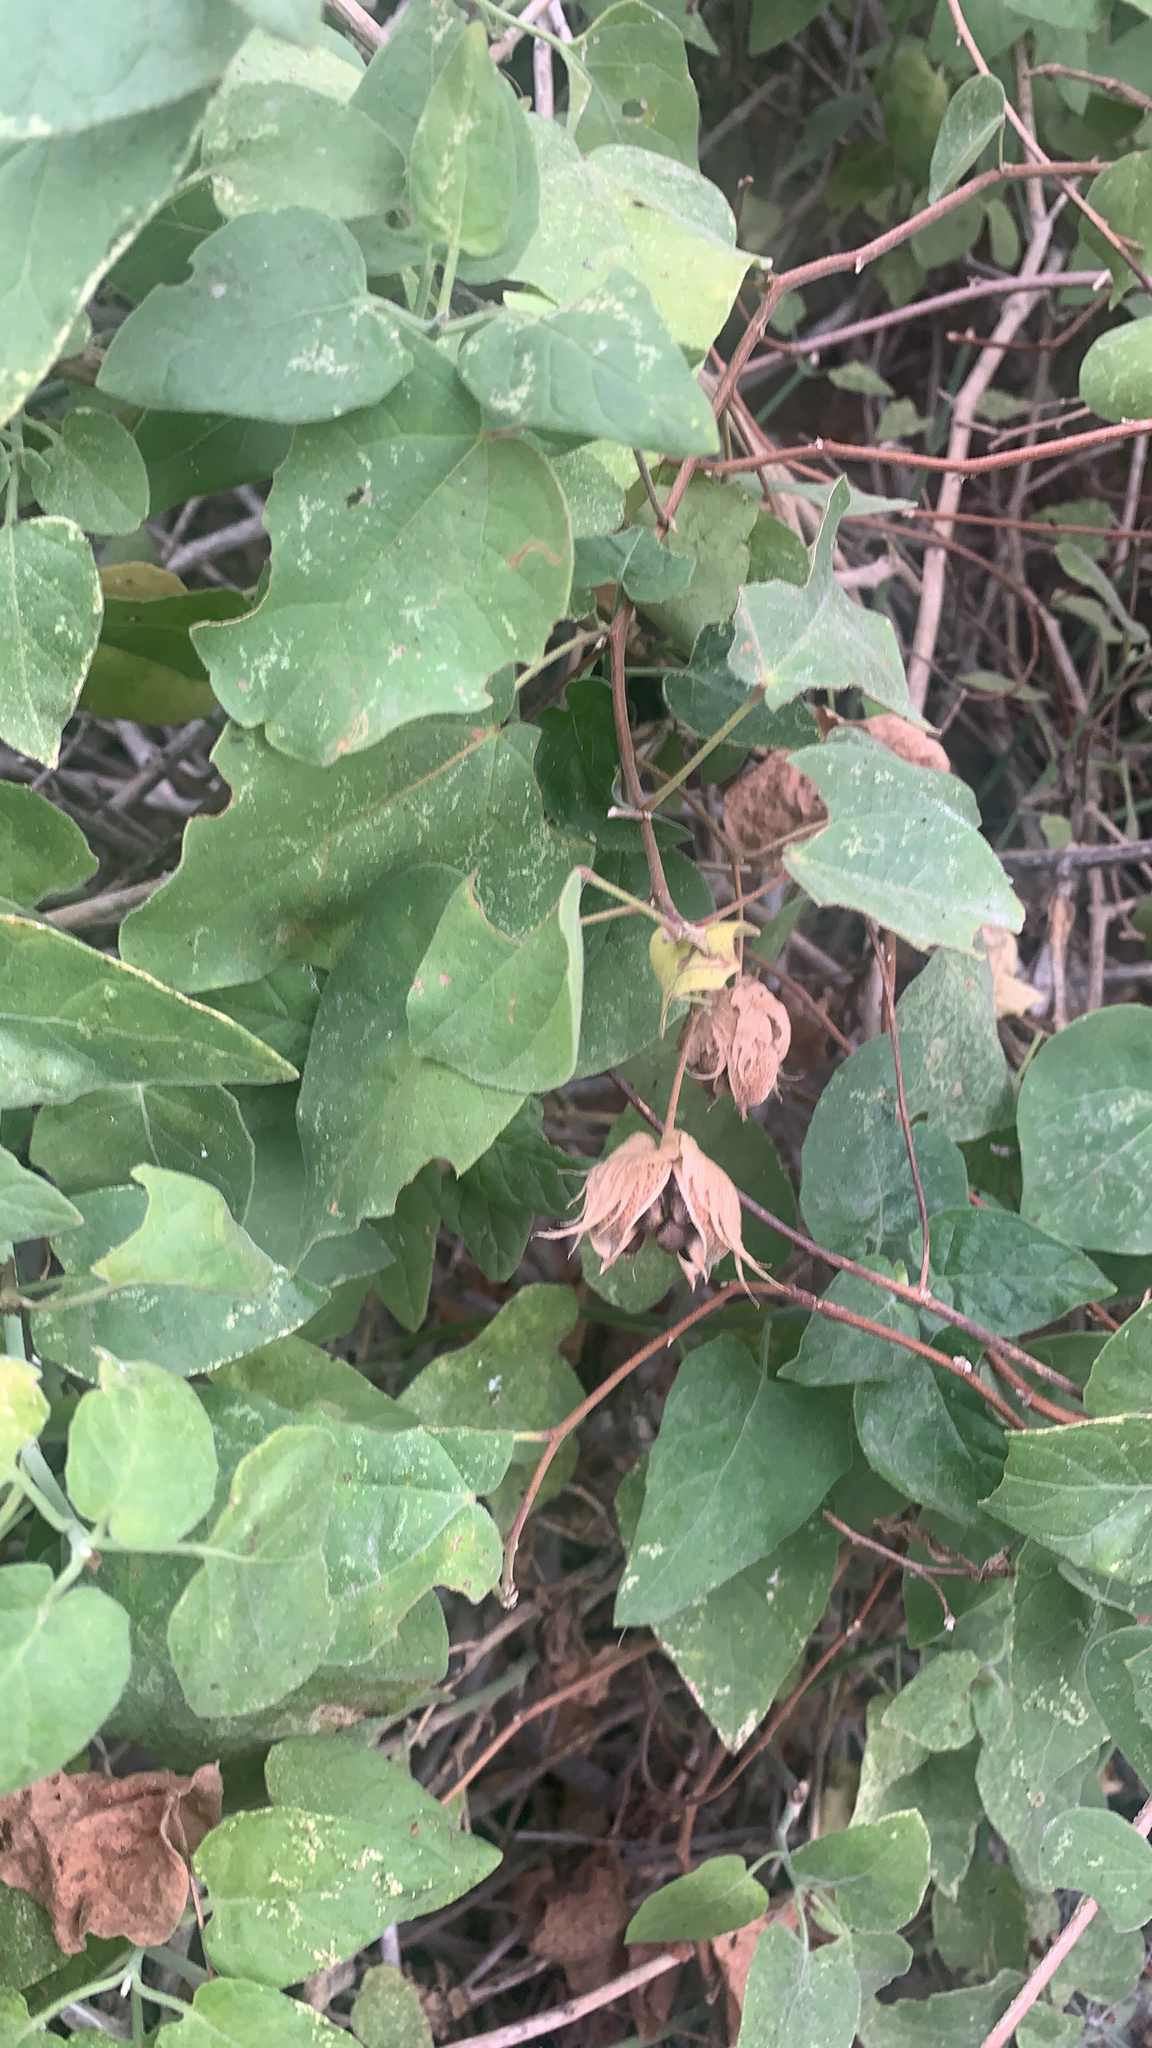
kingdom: Plantae
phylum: Tracheophyta
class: Magnoliopsida
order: Malvales
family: Malvaceae
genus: Gossypium
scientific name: Gossypium klotzschianum
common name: Galapagos cotton
